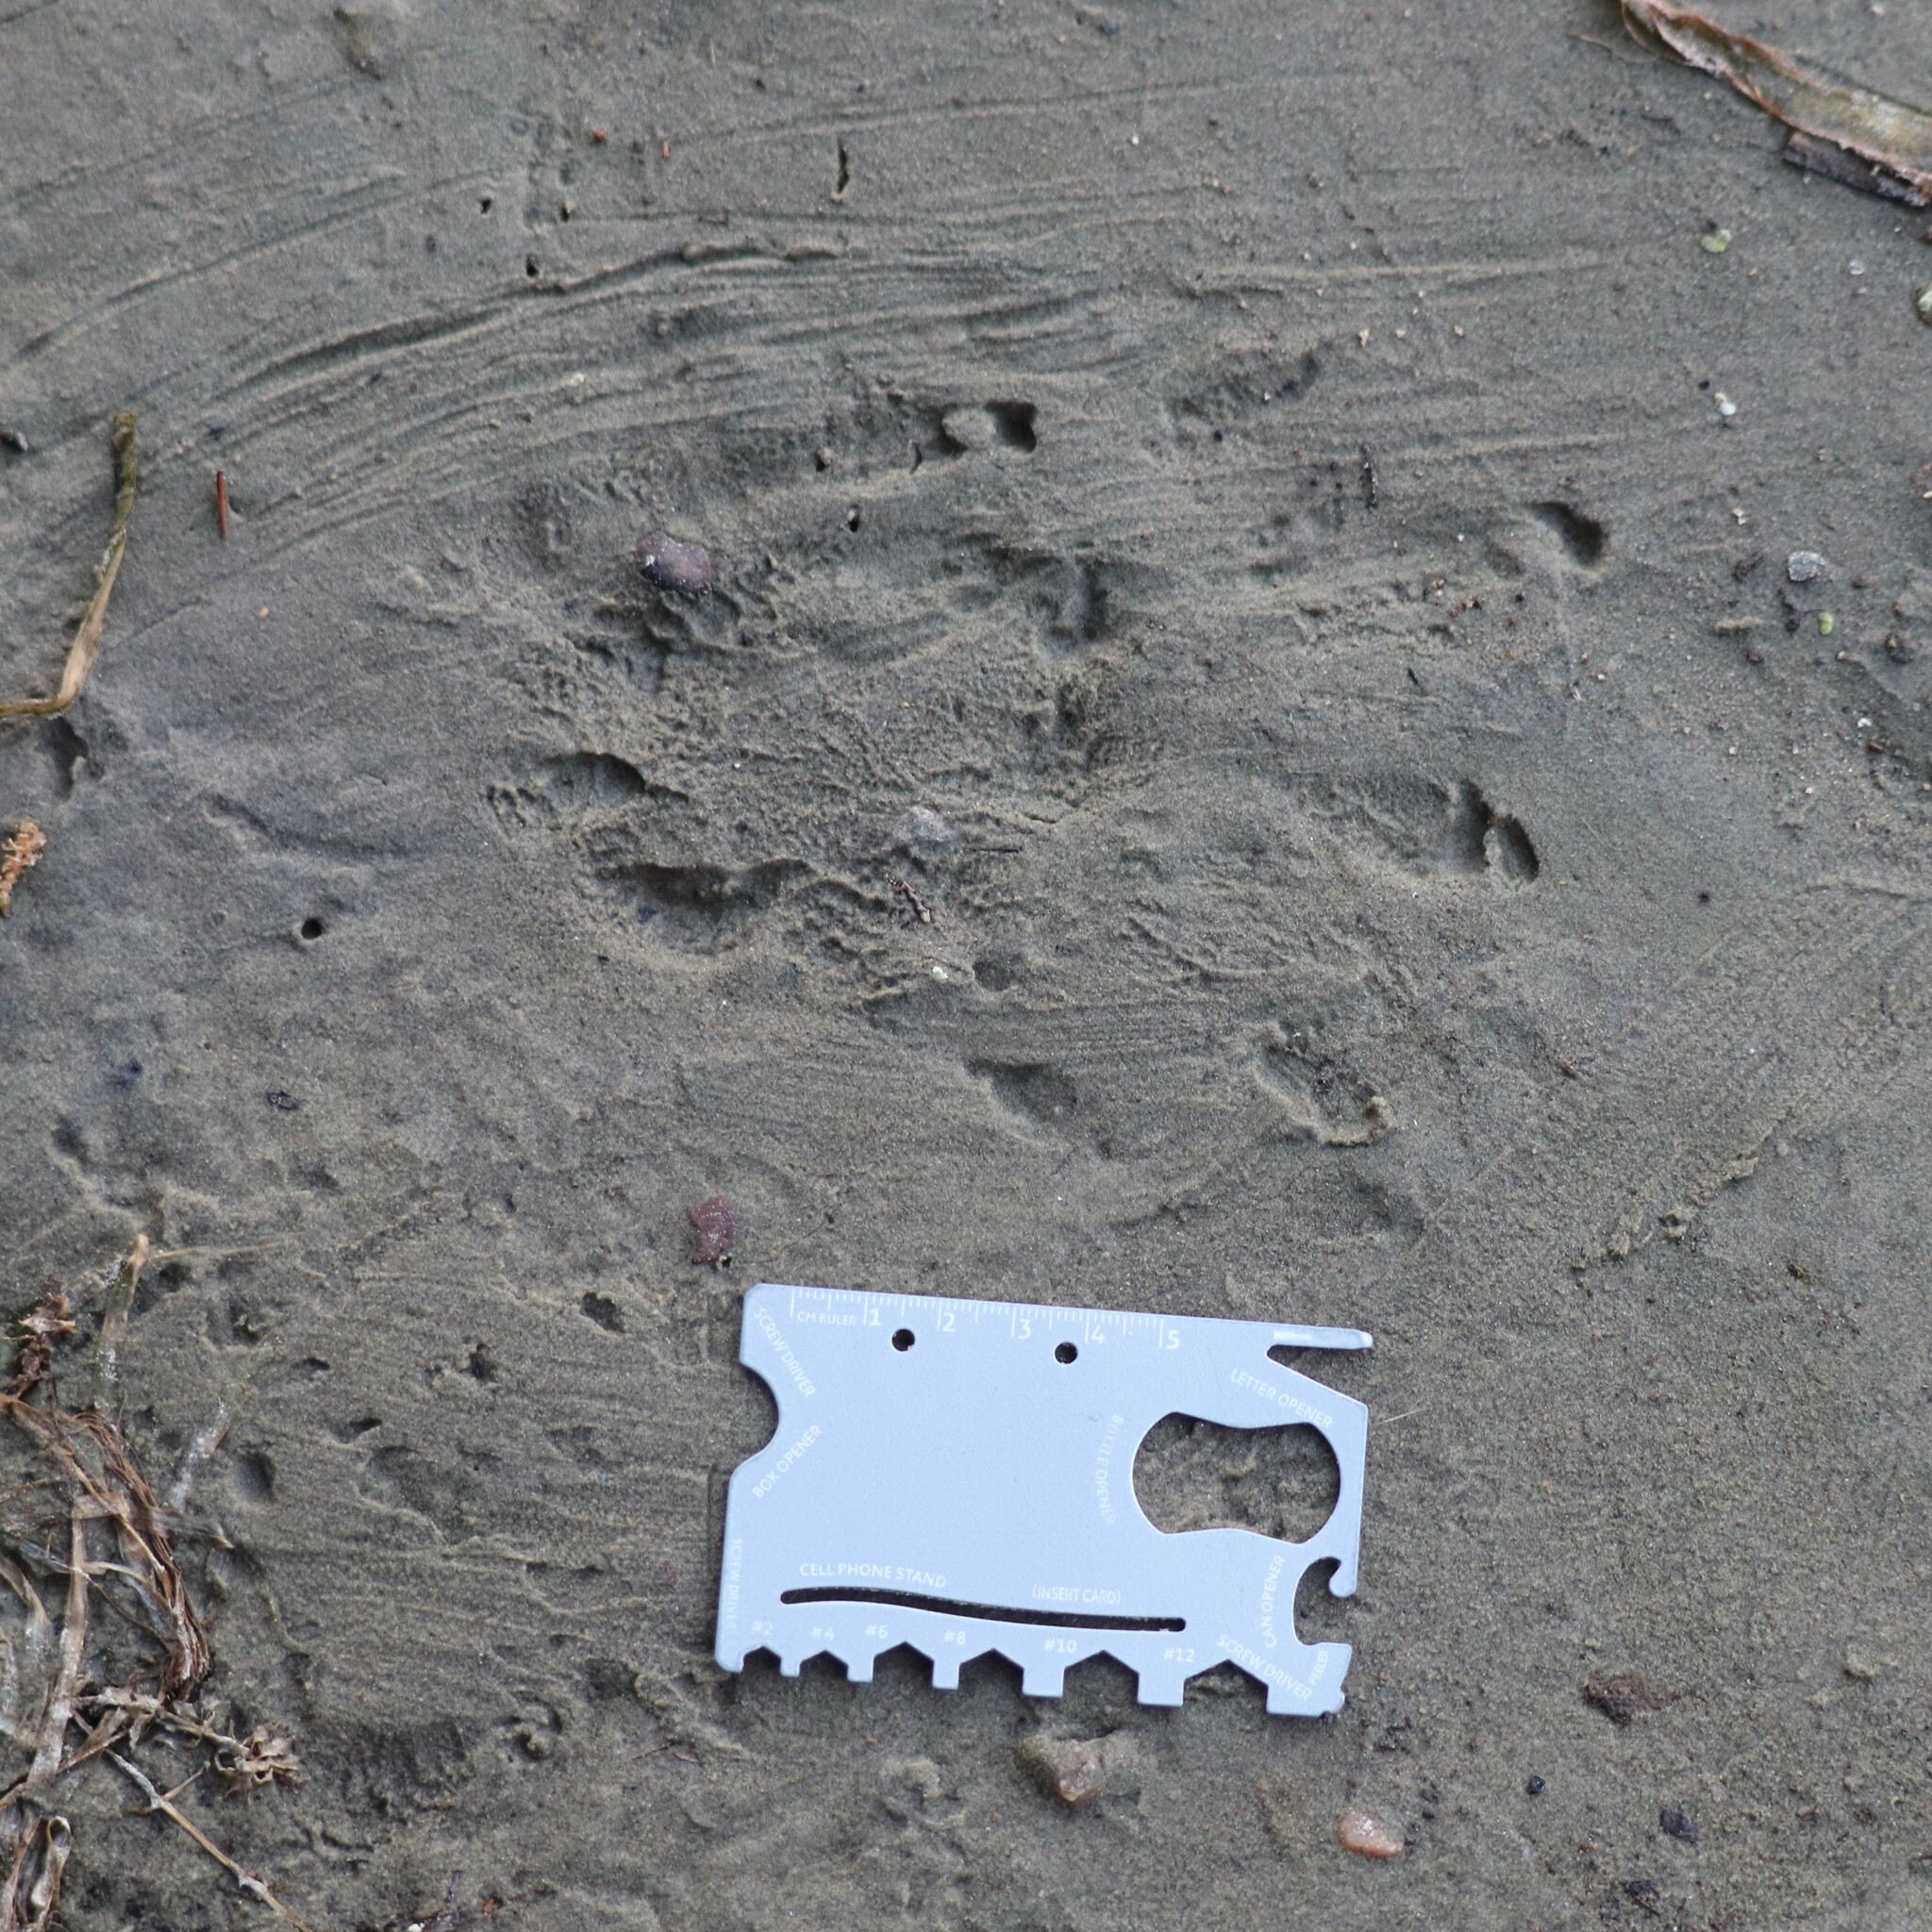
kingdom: Animalia
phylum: Chordata
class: Mammalia
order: Rodentia
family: Castoridae
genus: Castor
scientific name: Castor canadensis
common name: American beaver
